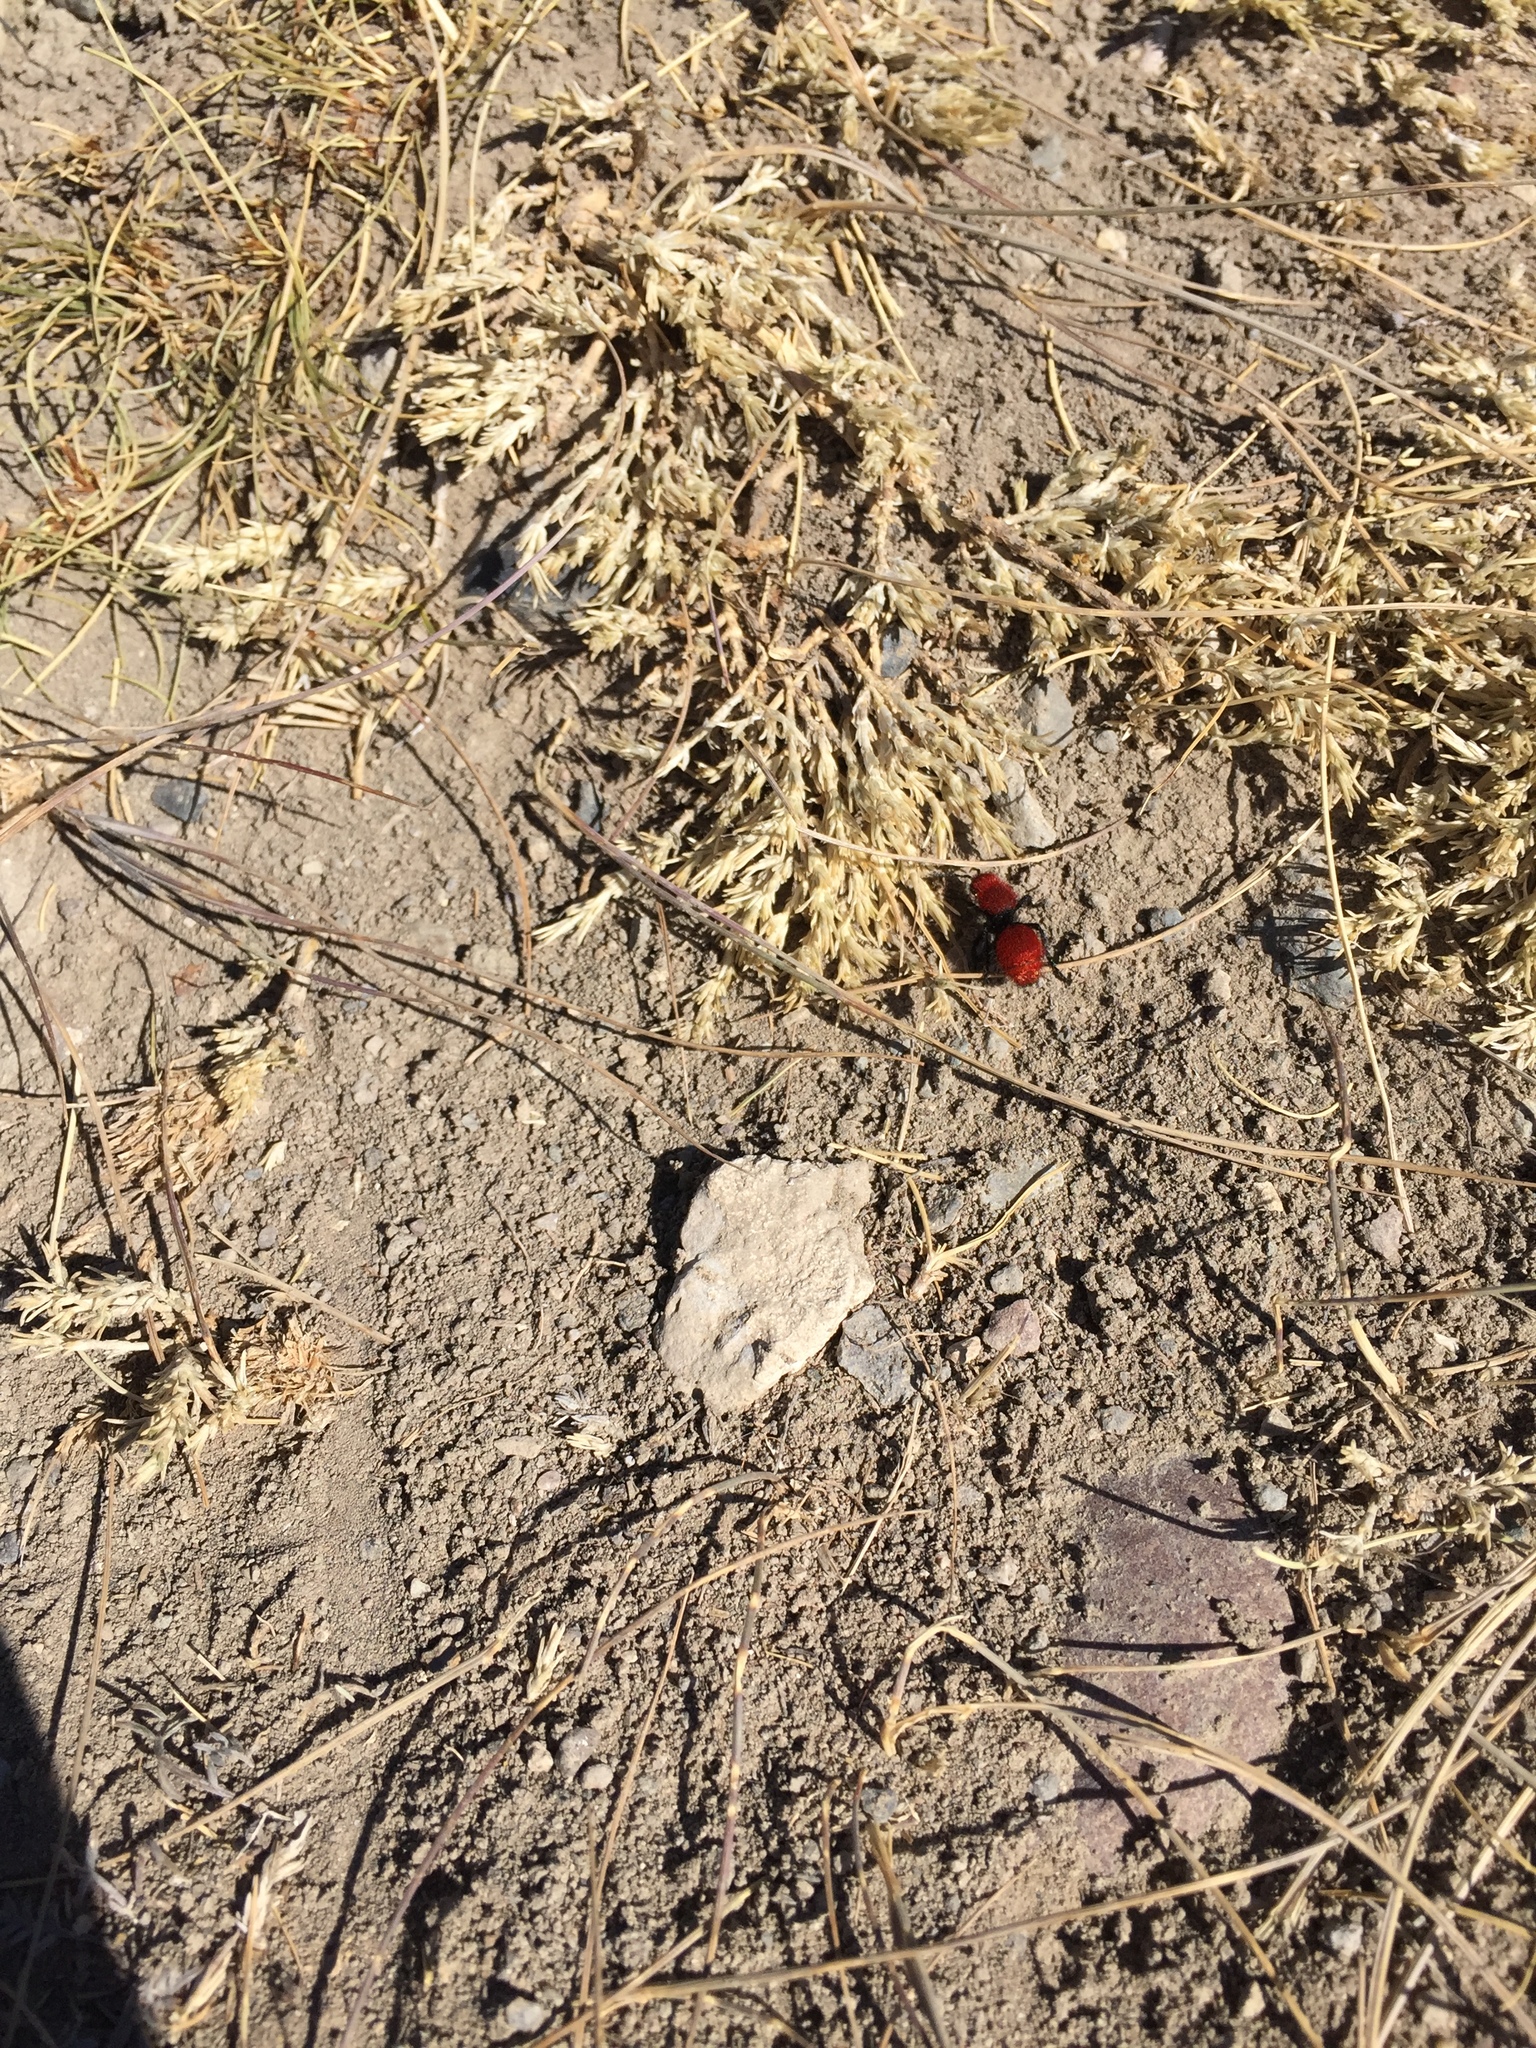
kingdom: Animalia
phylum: Arthropoda
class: Insecta
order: Hymenoptera
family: Mutillidae
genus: Dasymutilla
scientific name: Dasymutilla vestita
